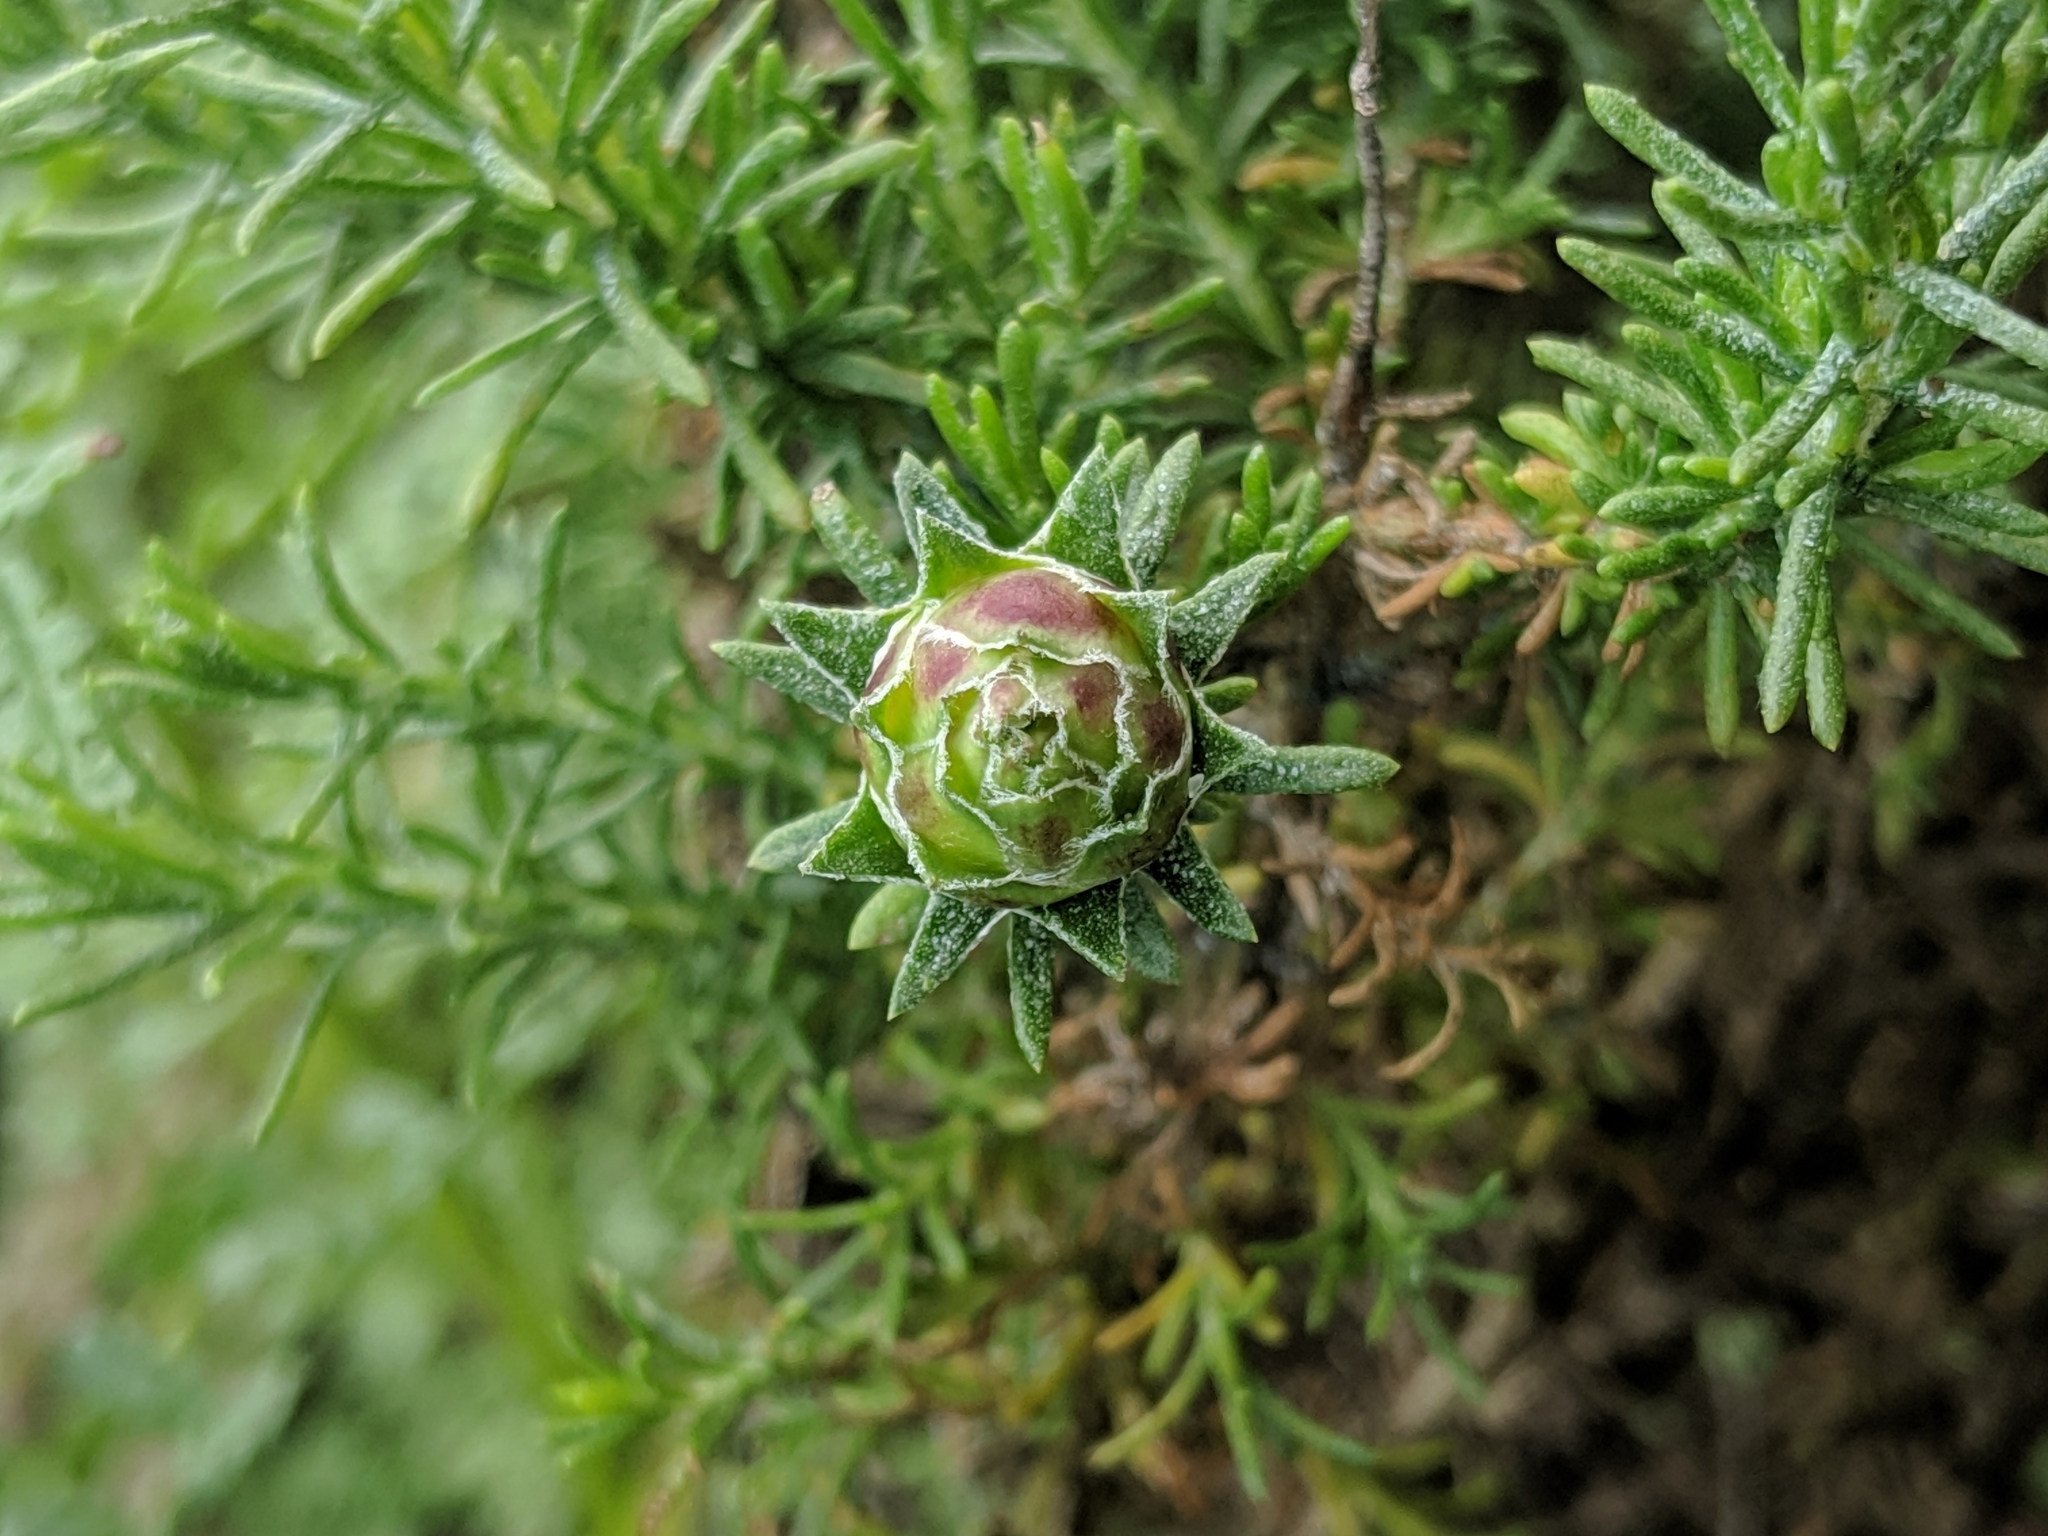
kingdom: Animalia
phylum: Arthropoda
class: Insecta
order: Diptera
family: Cecidomyiidae
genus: Prodiplosis
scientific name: Prodiplosis falcata
